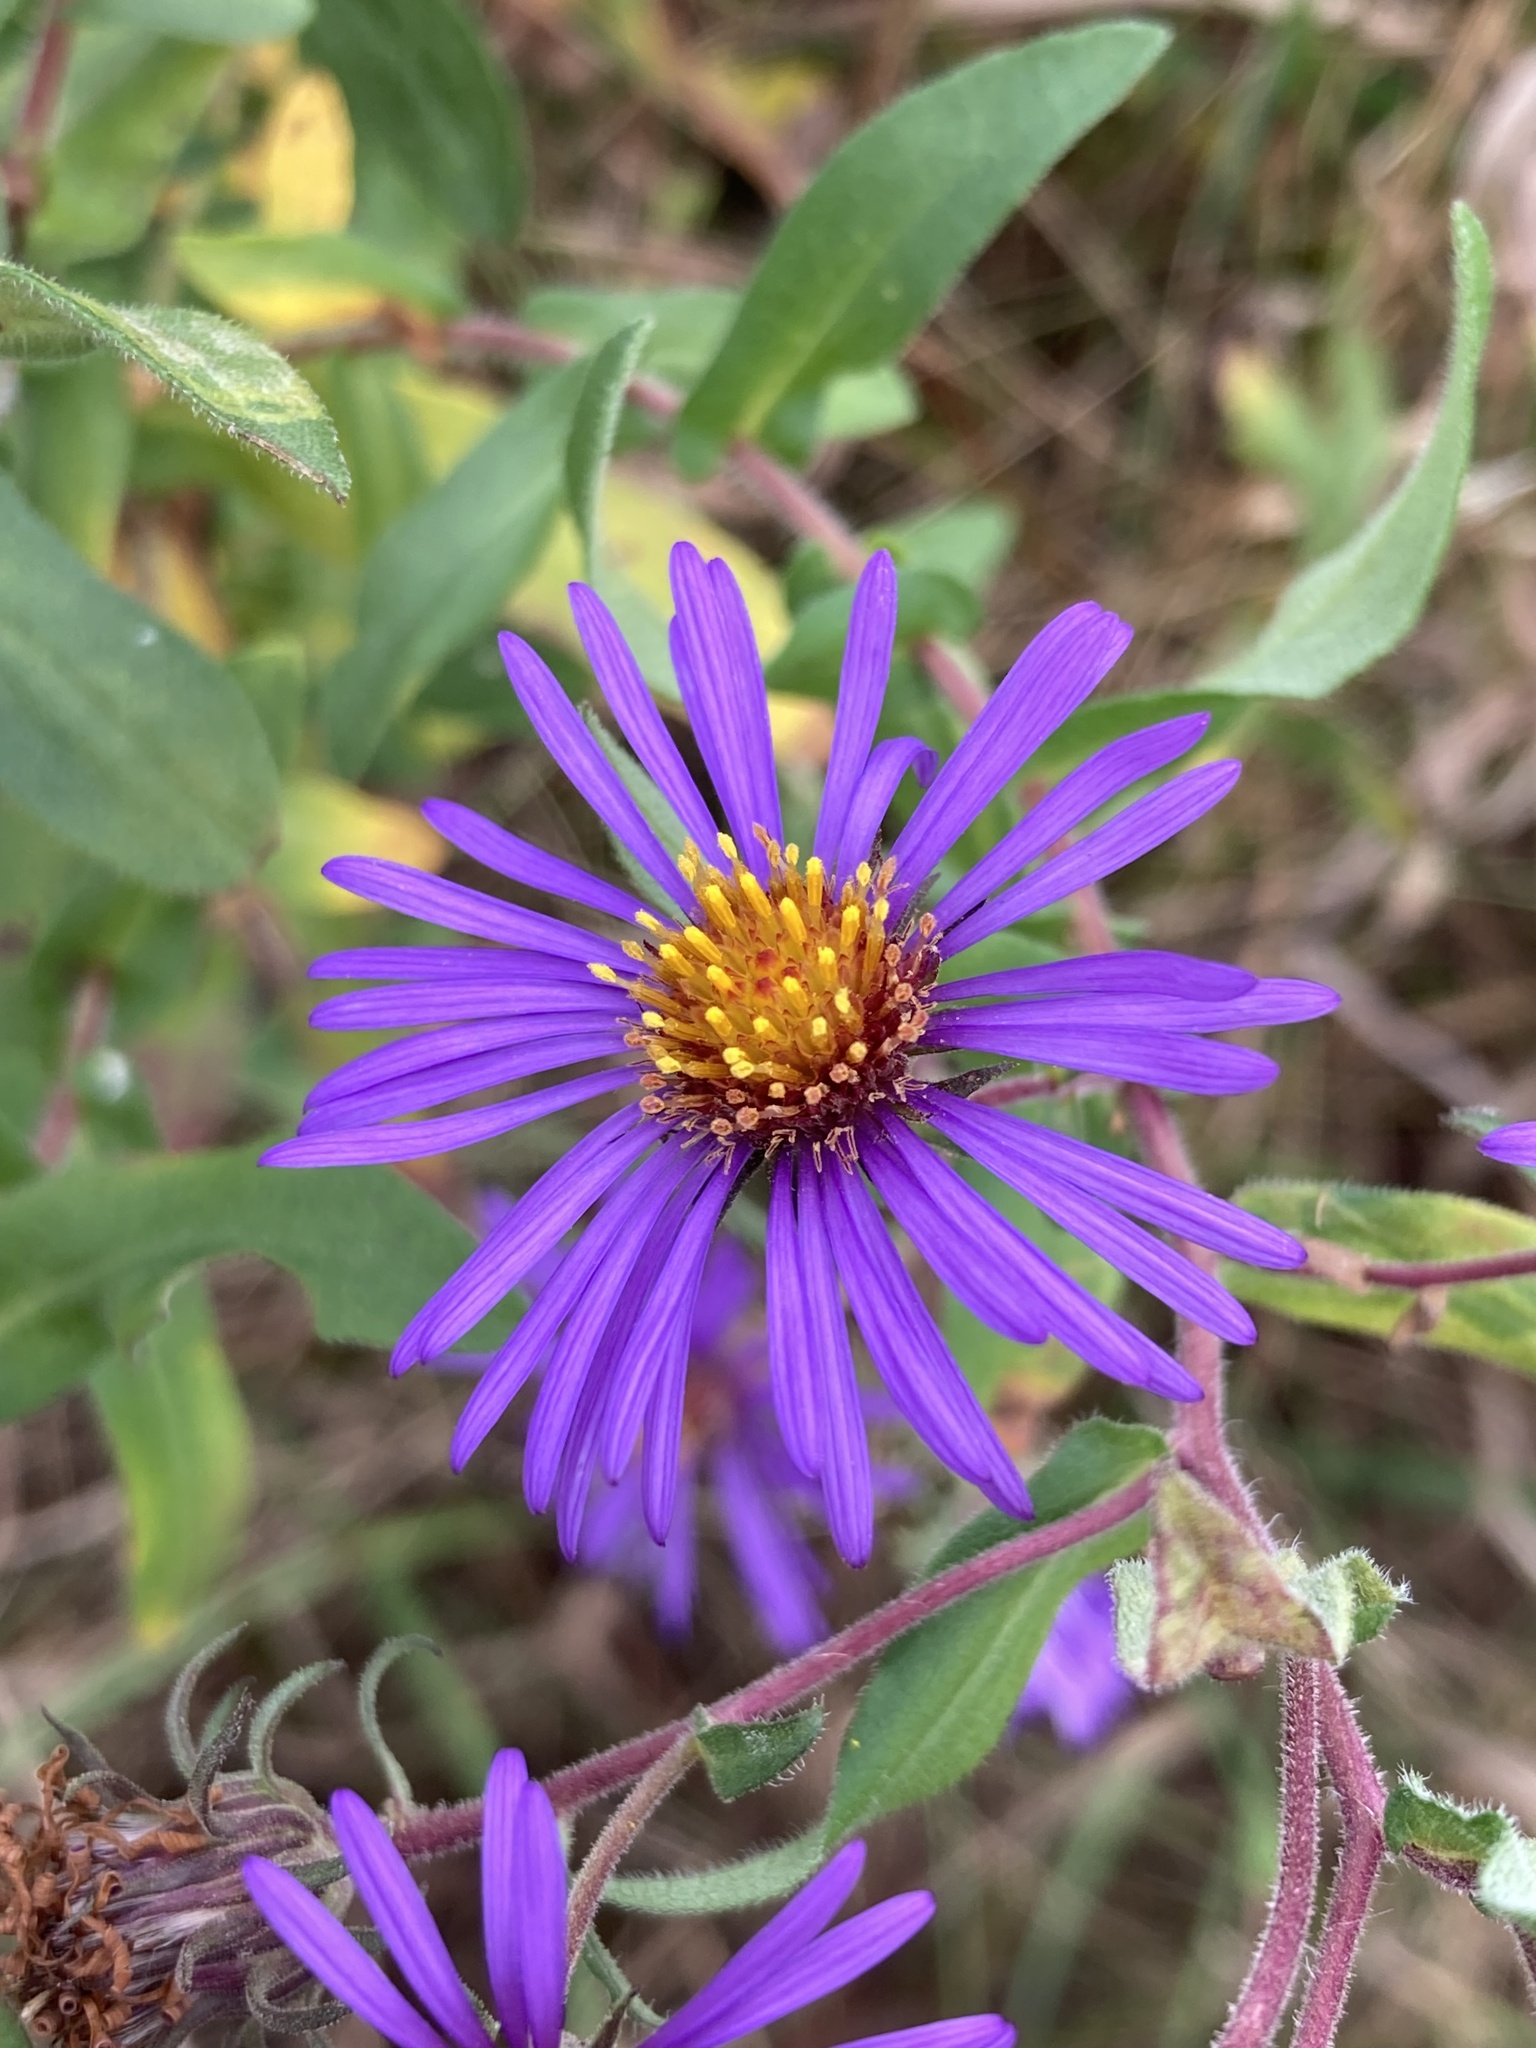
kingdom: Plantae
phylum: Tracheophyta
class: Magnoliopsida
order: Asterales
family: Asteraceae
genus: Symphyotrichum
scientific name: Symphyotrichum novae-angliae
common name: Michaelmas daisy
